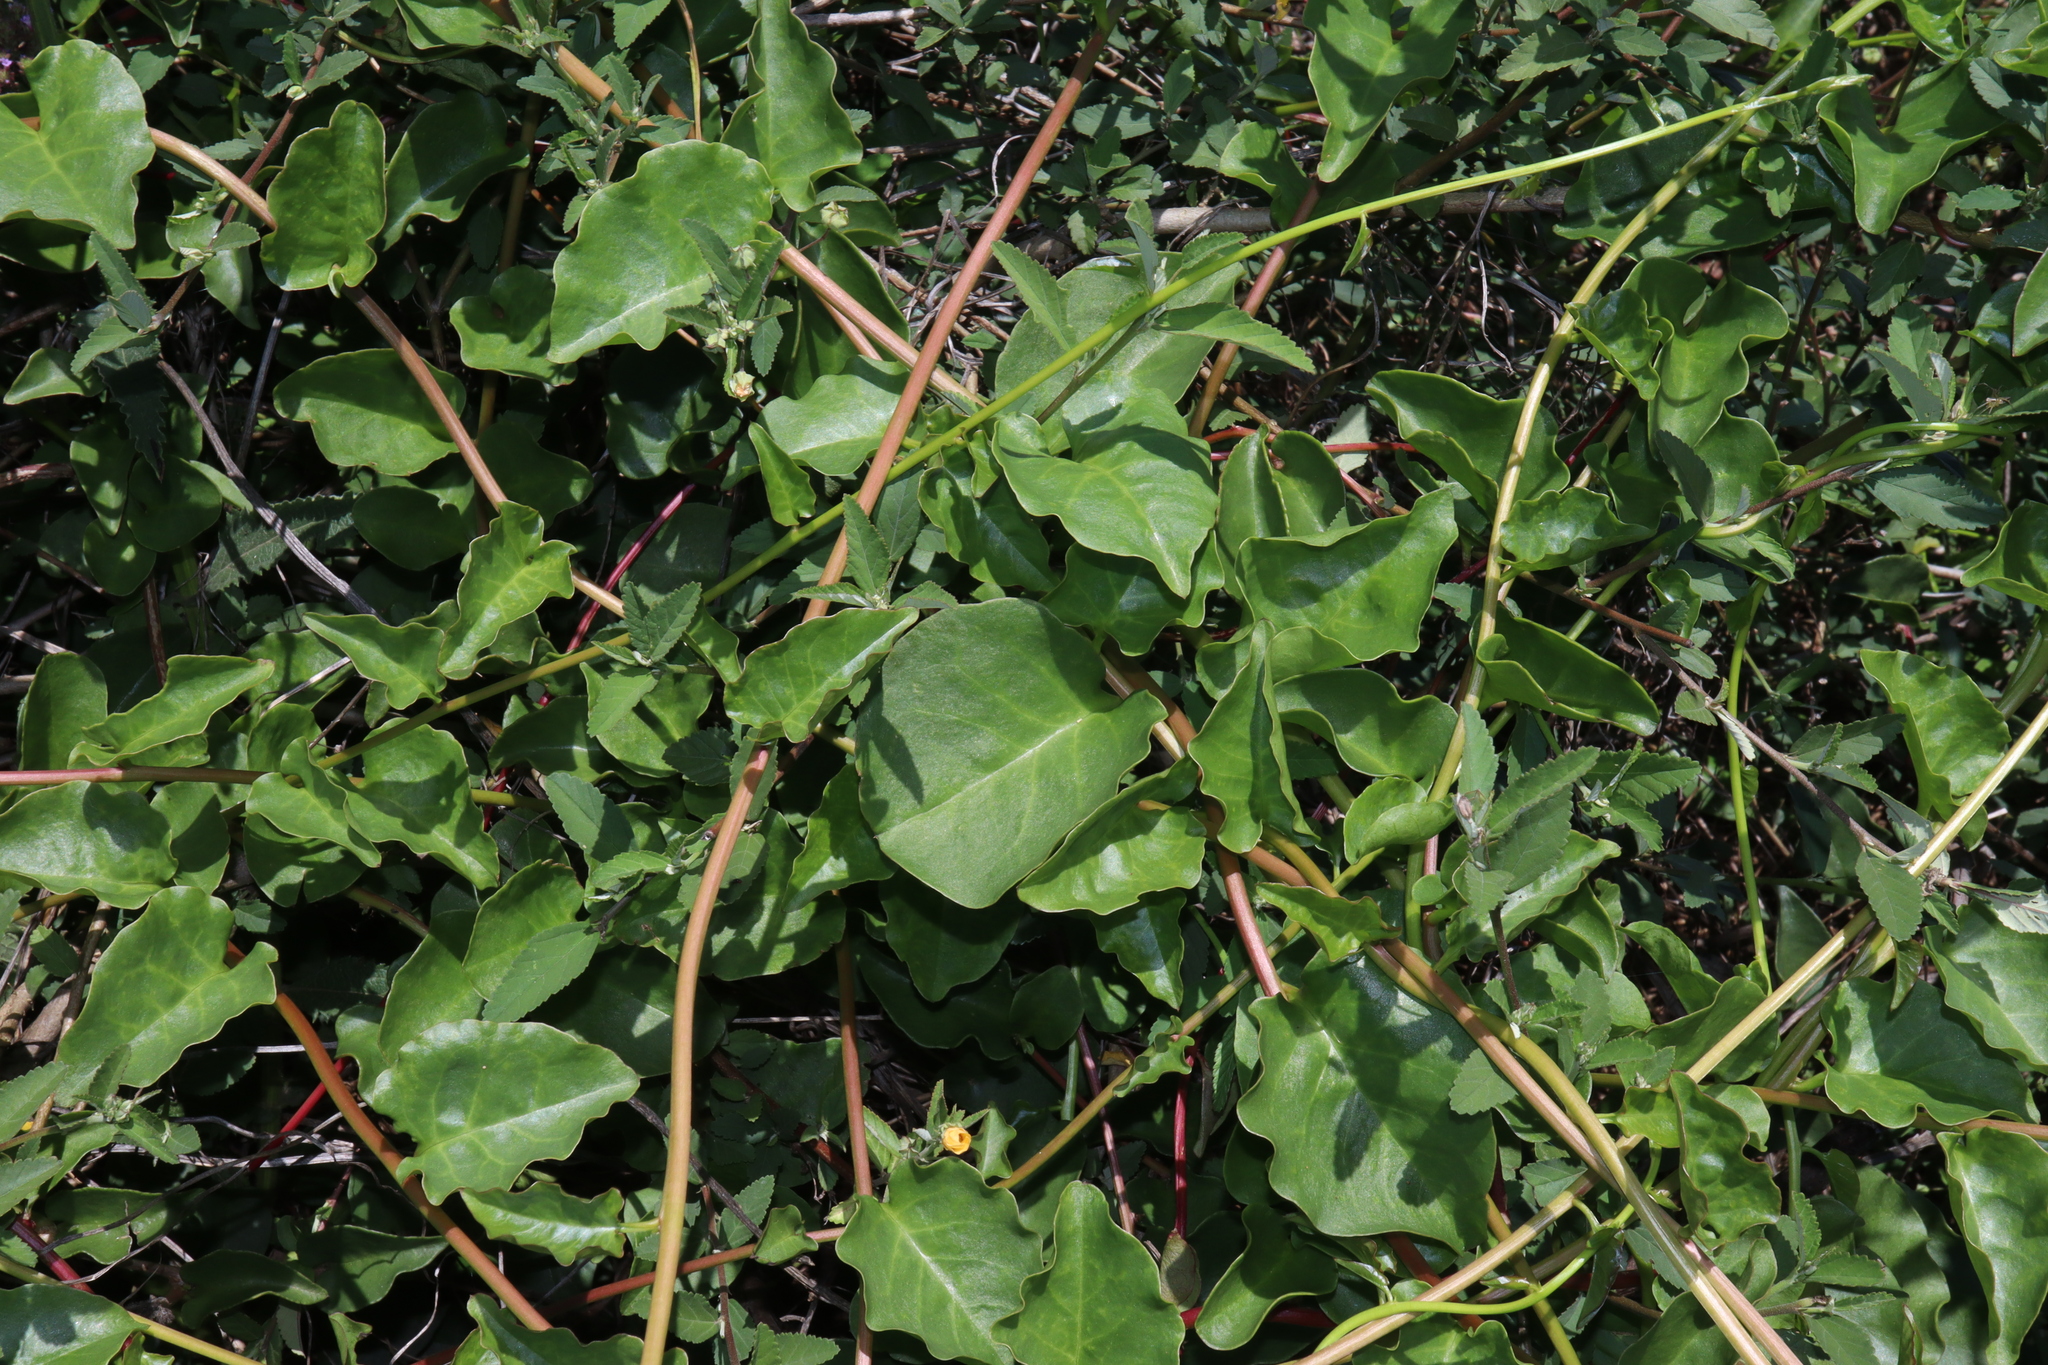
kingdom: Plantae
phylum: Tracheophyta
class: Magnoliopsida
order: Caryophyllales
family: Basellaceae
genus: Anredera
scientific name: Anredera cordifolia
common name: Heartleaf madeiravine
